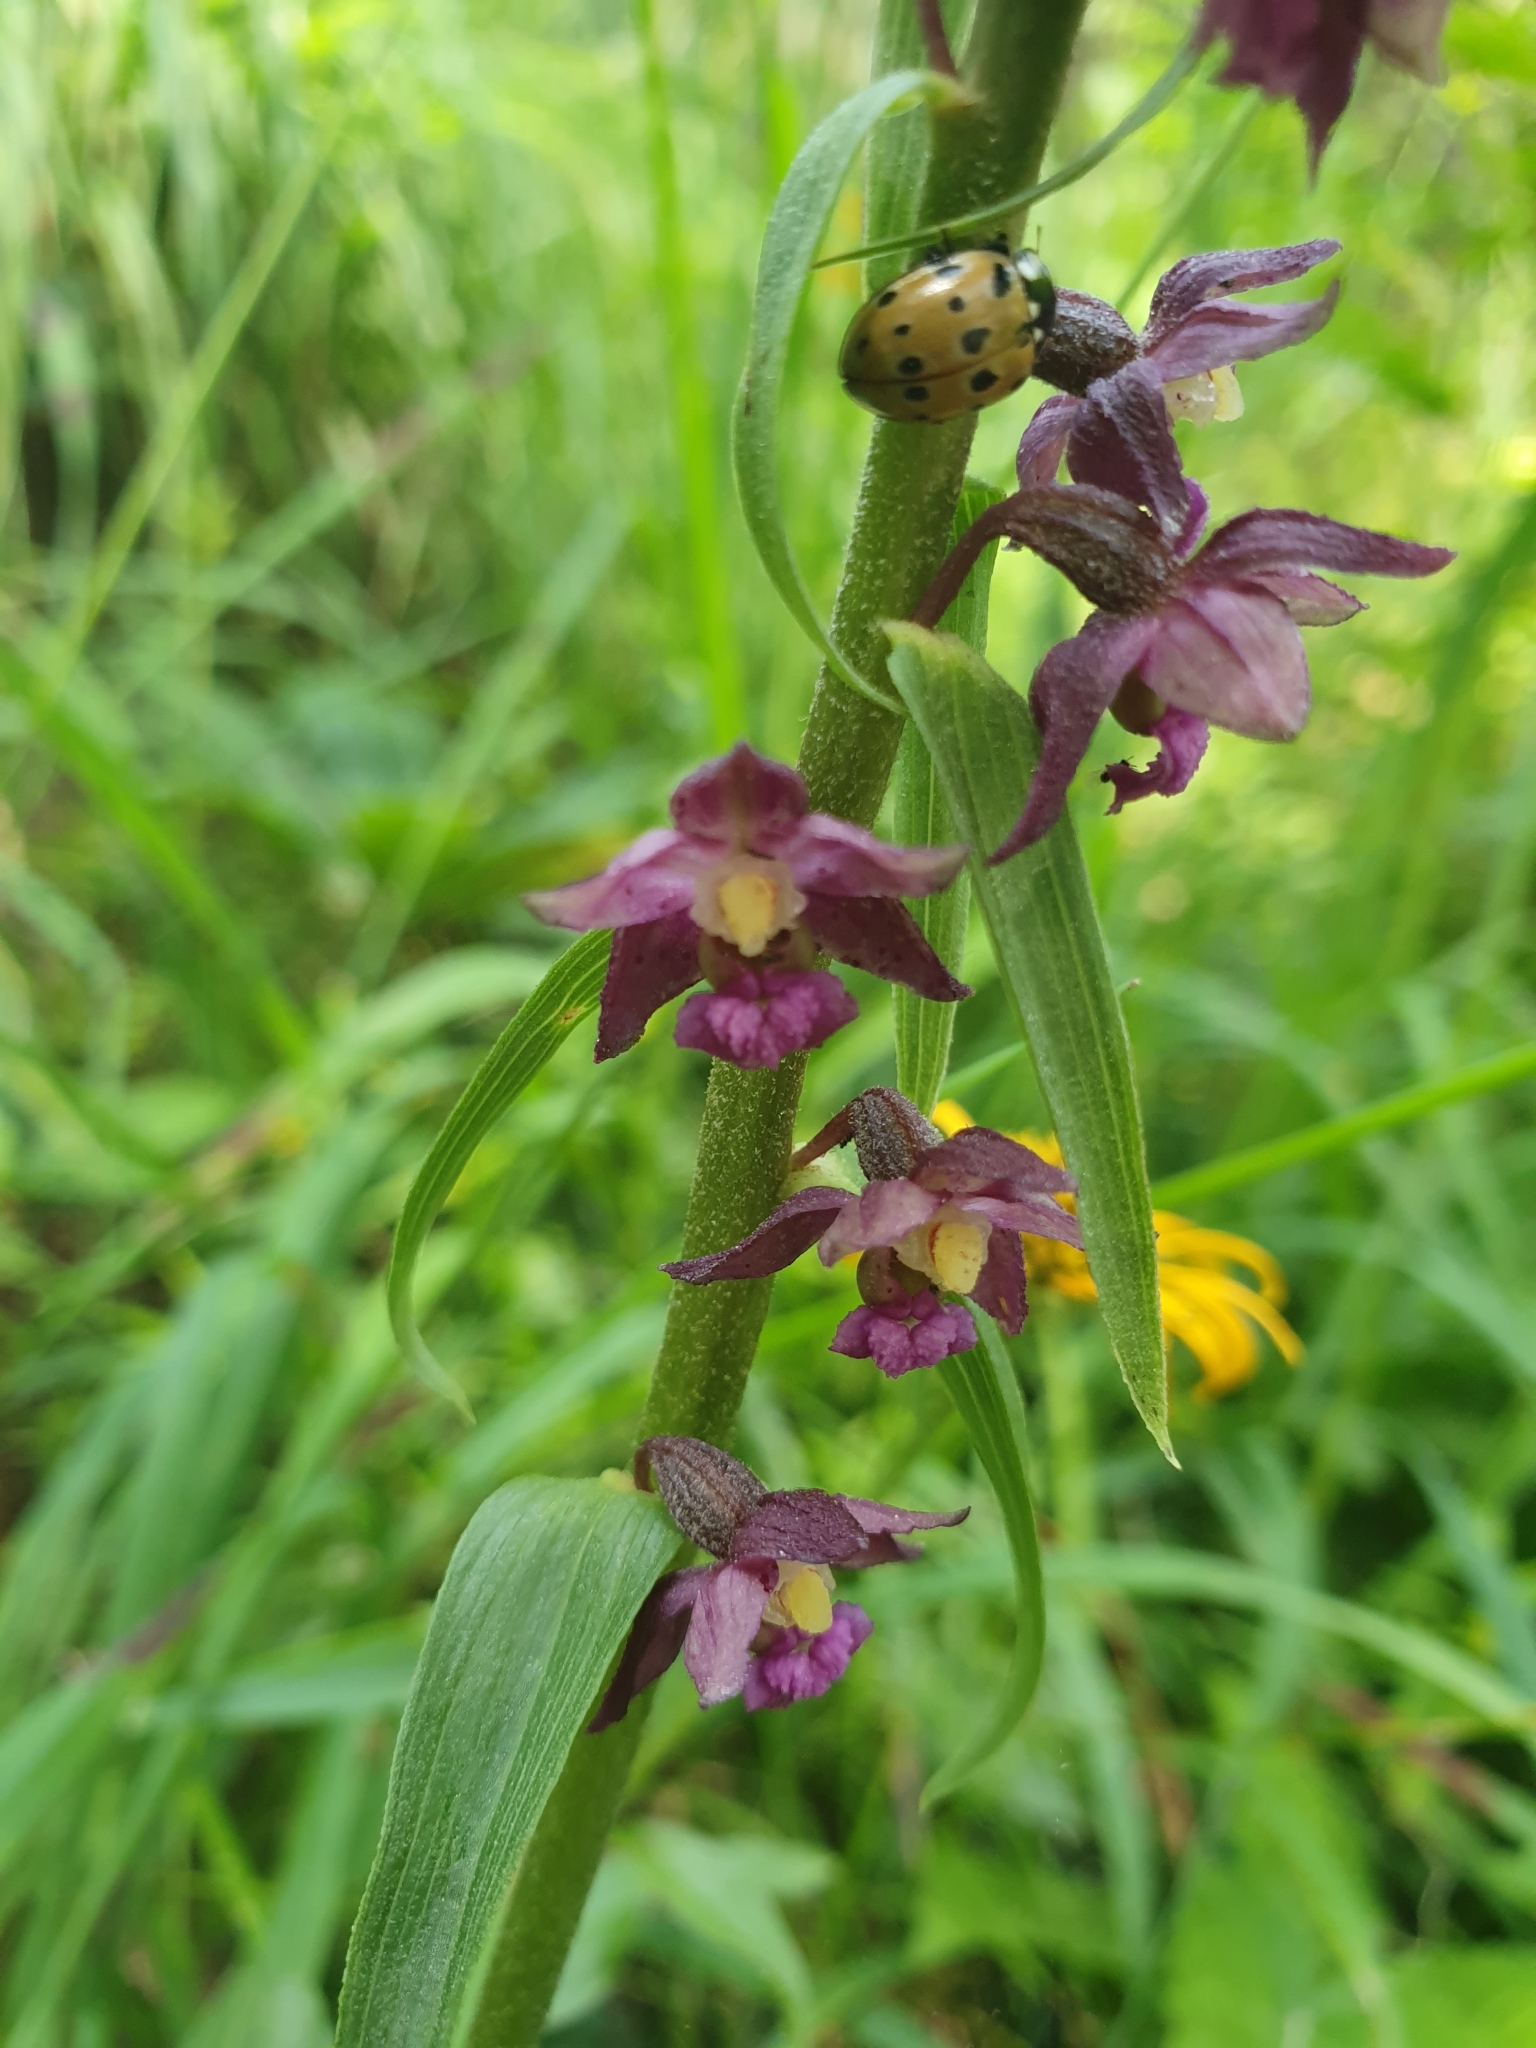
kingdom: Plantae
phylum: Tracheophyta
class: Liliopsida
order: Asparagales
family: Orchidaceae
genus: Epipactis
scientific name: Epipactis atrorubens
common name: Dark-red helleborine
